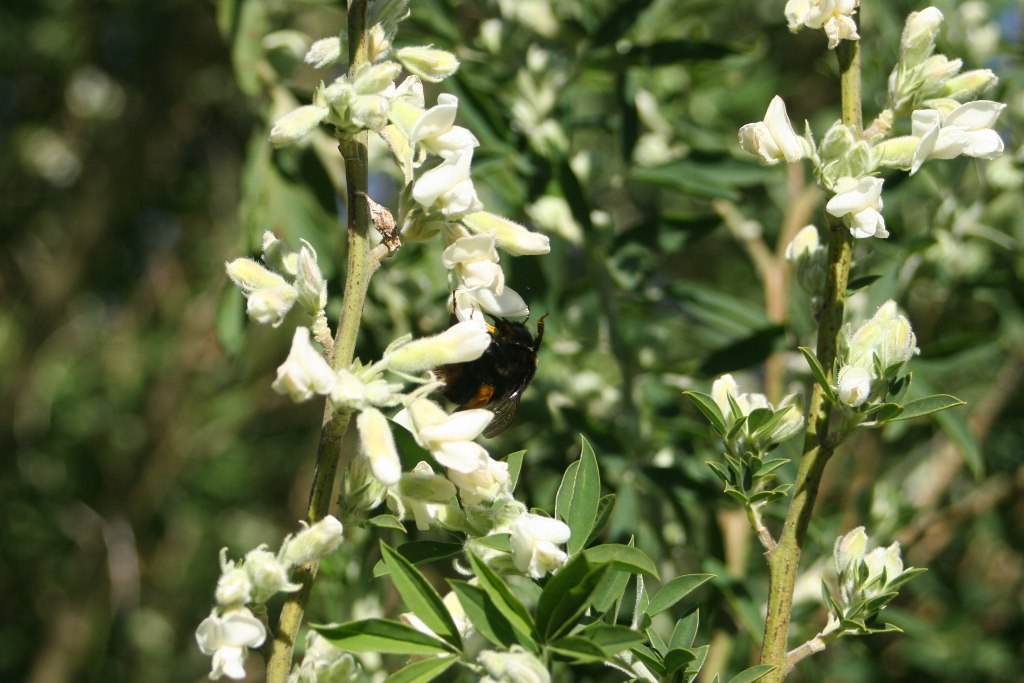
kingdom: Plantae
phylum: Tracheophyta
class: Magnoliopsida
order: Fabales
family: Fabaceae
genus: Chamaecytisus
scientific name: Chamaecytisus prolifer
